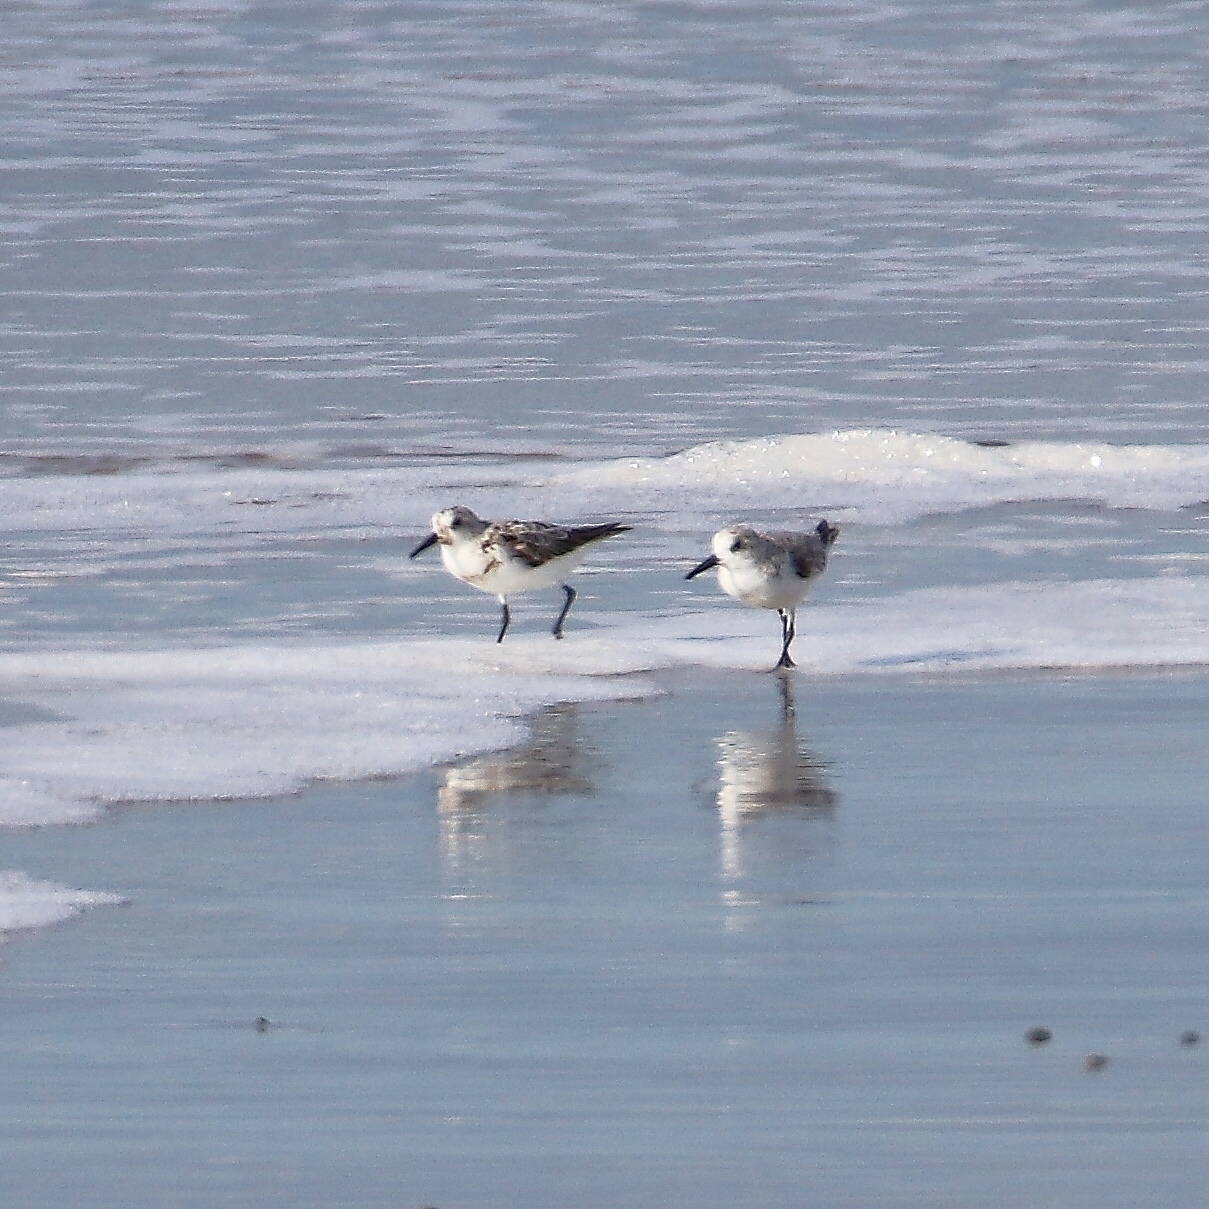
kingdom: Animalia
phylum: Chordata
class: Aves
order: Charadriiformes
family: Scolopacidae
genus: Calidris
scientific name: Calidris alba
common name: Sanderling
